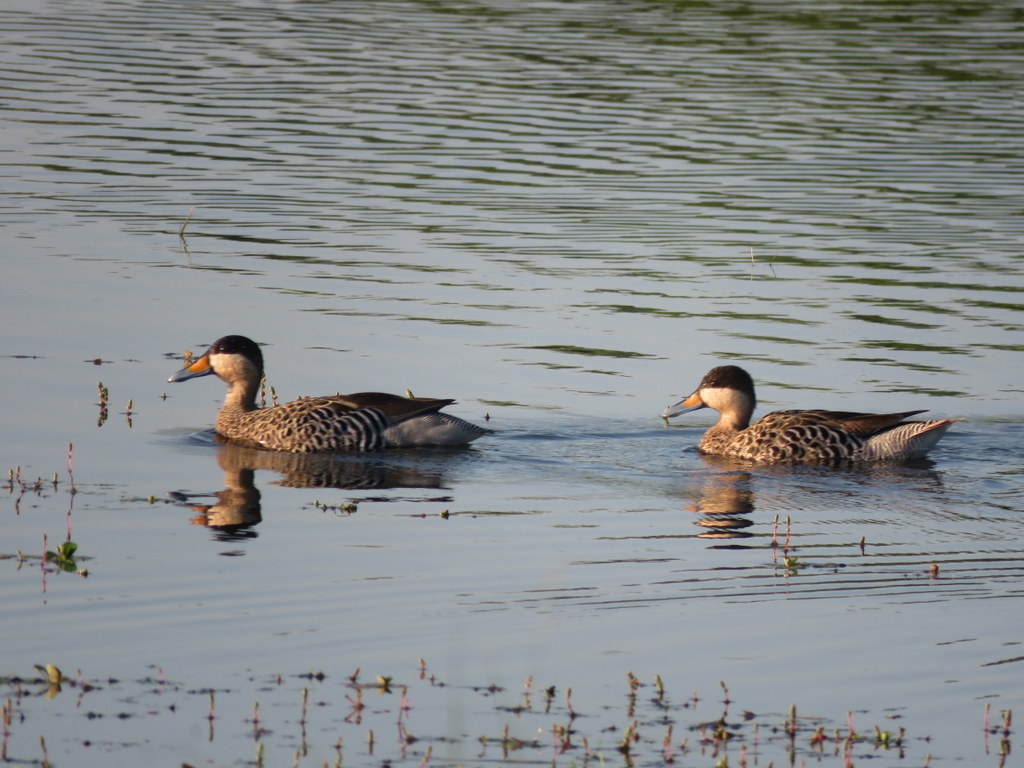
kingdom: Animalia
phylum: Chordata
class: Aves
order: Anseriformes
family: Anatidae
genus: Spatula
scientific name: Spatula versicolor
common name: Silver teal
